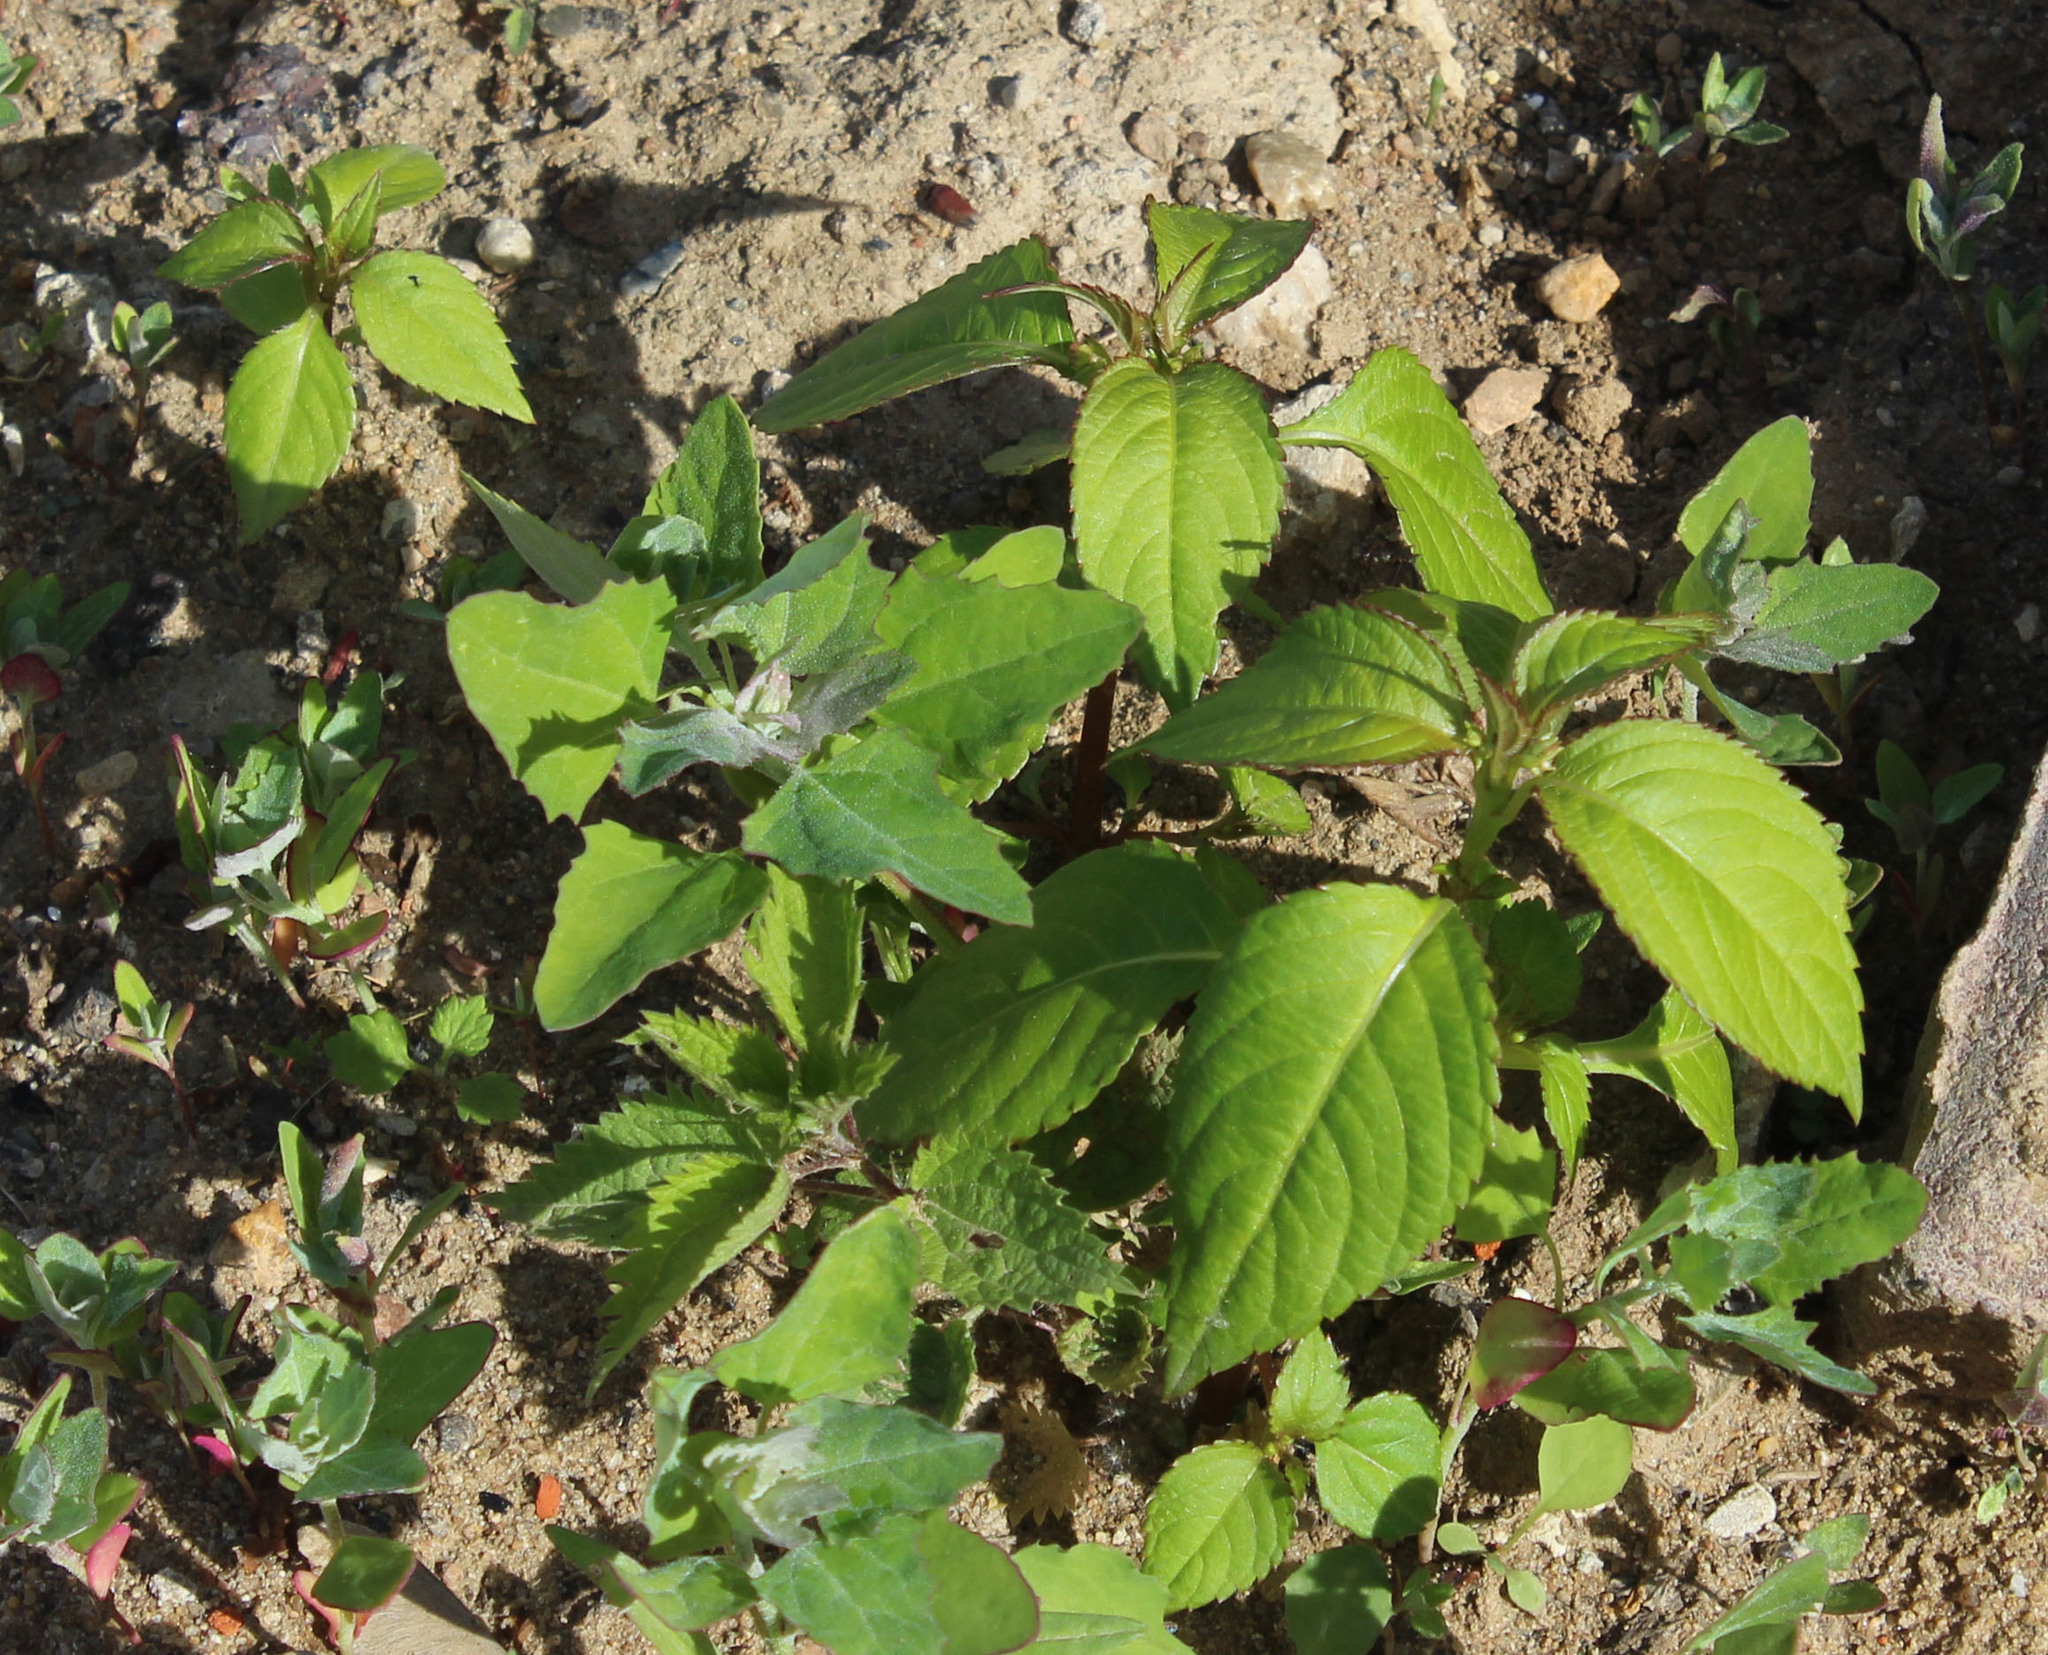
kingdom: Plantae
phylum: Tracheophyta
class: Magnoliopsida
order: Ericales
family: Balsaminaceae
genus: Impatiens
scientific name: Impatiens parviflora
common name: Small balsam
